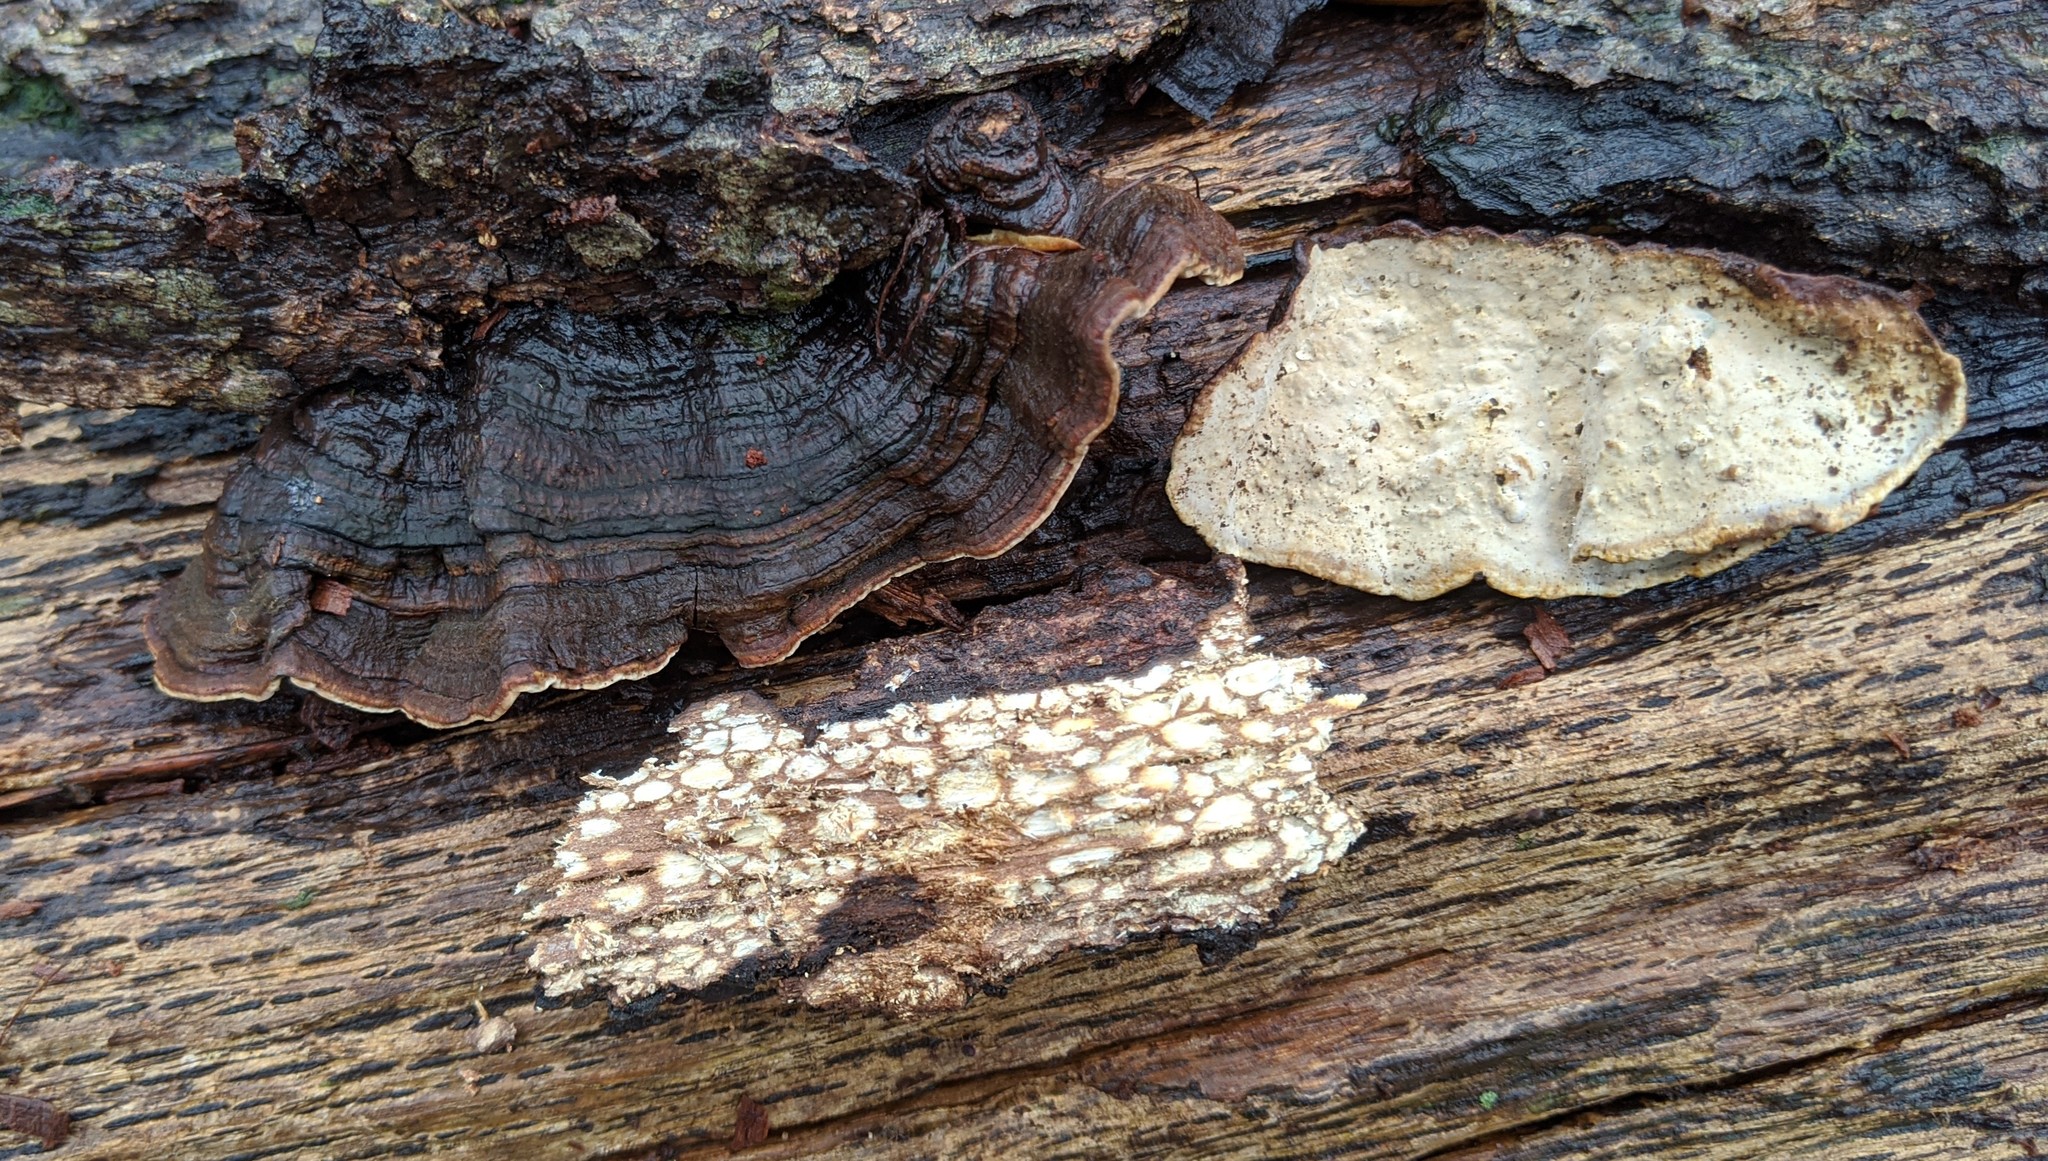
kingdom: Fungi
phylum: Basidiomycota
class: Agaricomycetes
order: Russulales
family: Stereaceae
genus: Xylobolus
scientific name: Xylobolus subpileatus
